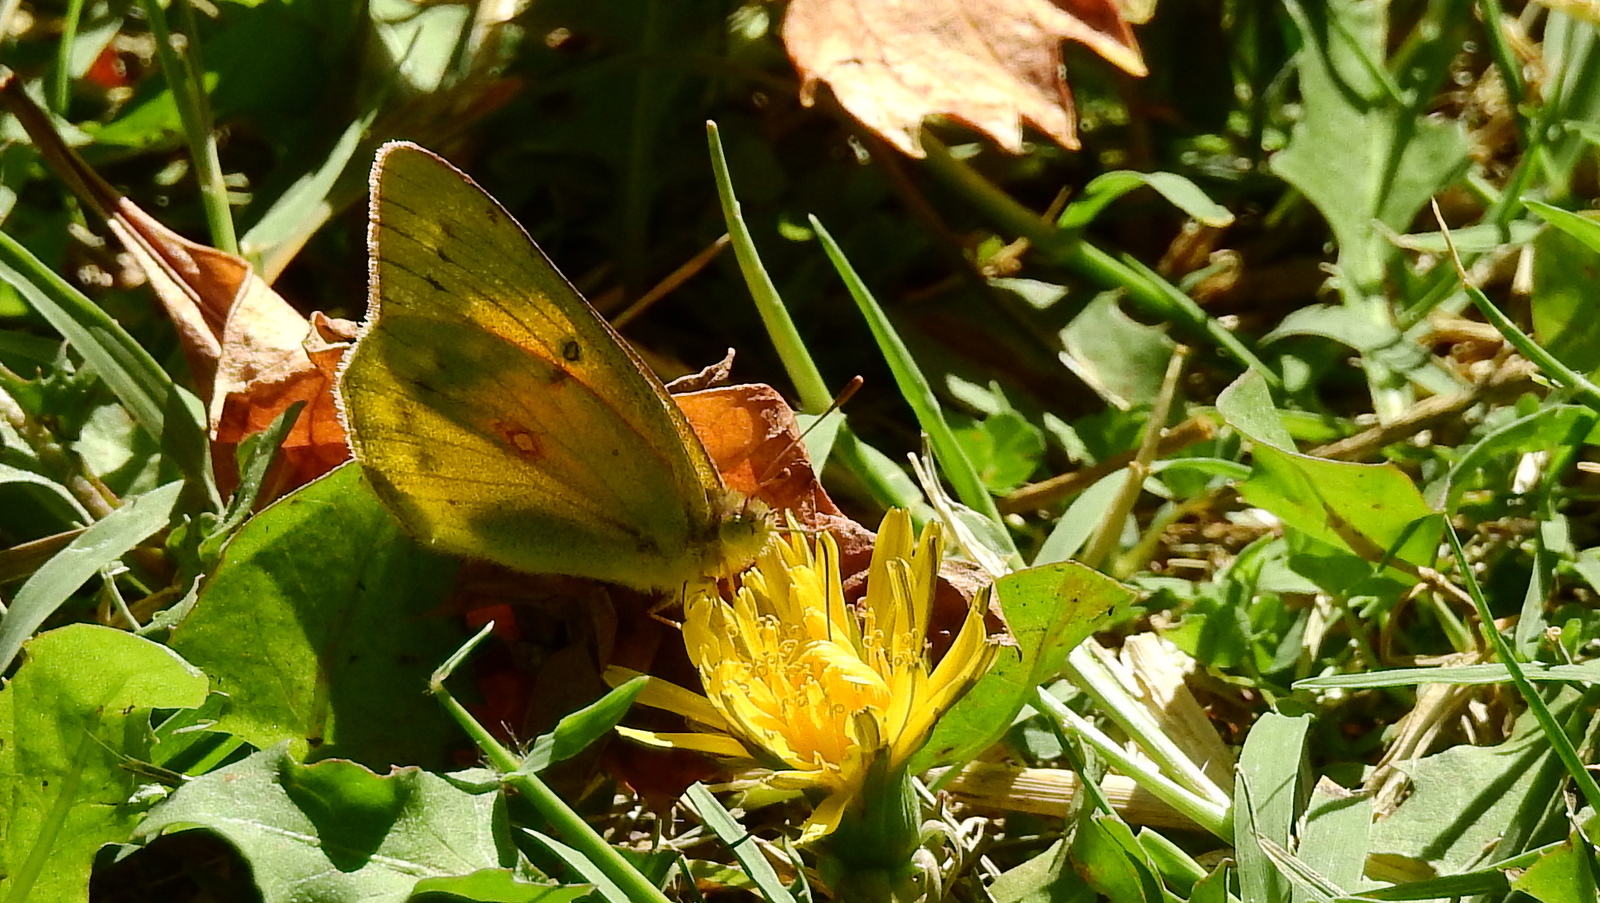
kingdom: Animalia
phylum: Arthropoda
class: Insecta
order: Lepidoptera
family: Pieridae
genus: Colias
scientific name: Colias lesbia
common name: Lesbia clouded yellow
